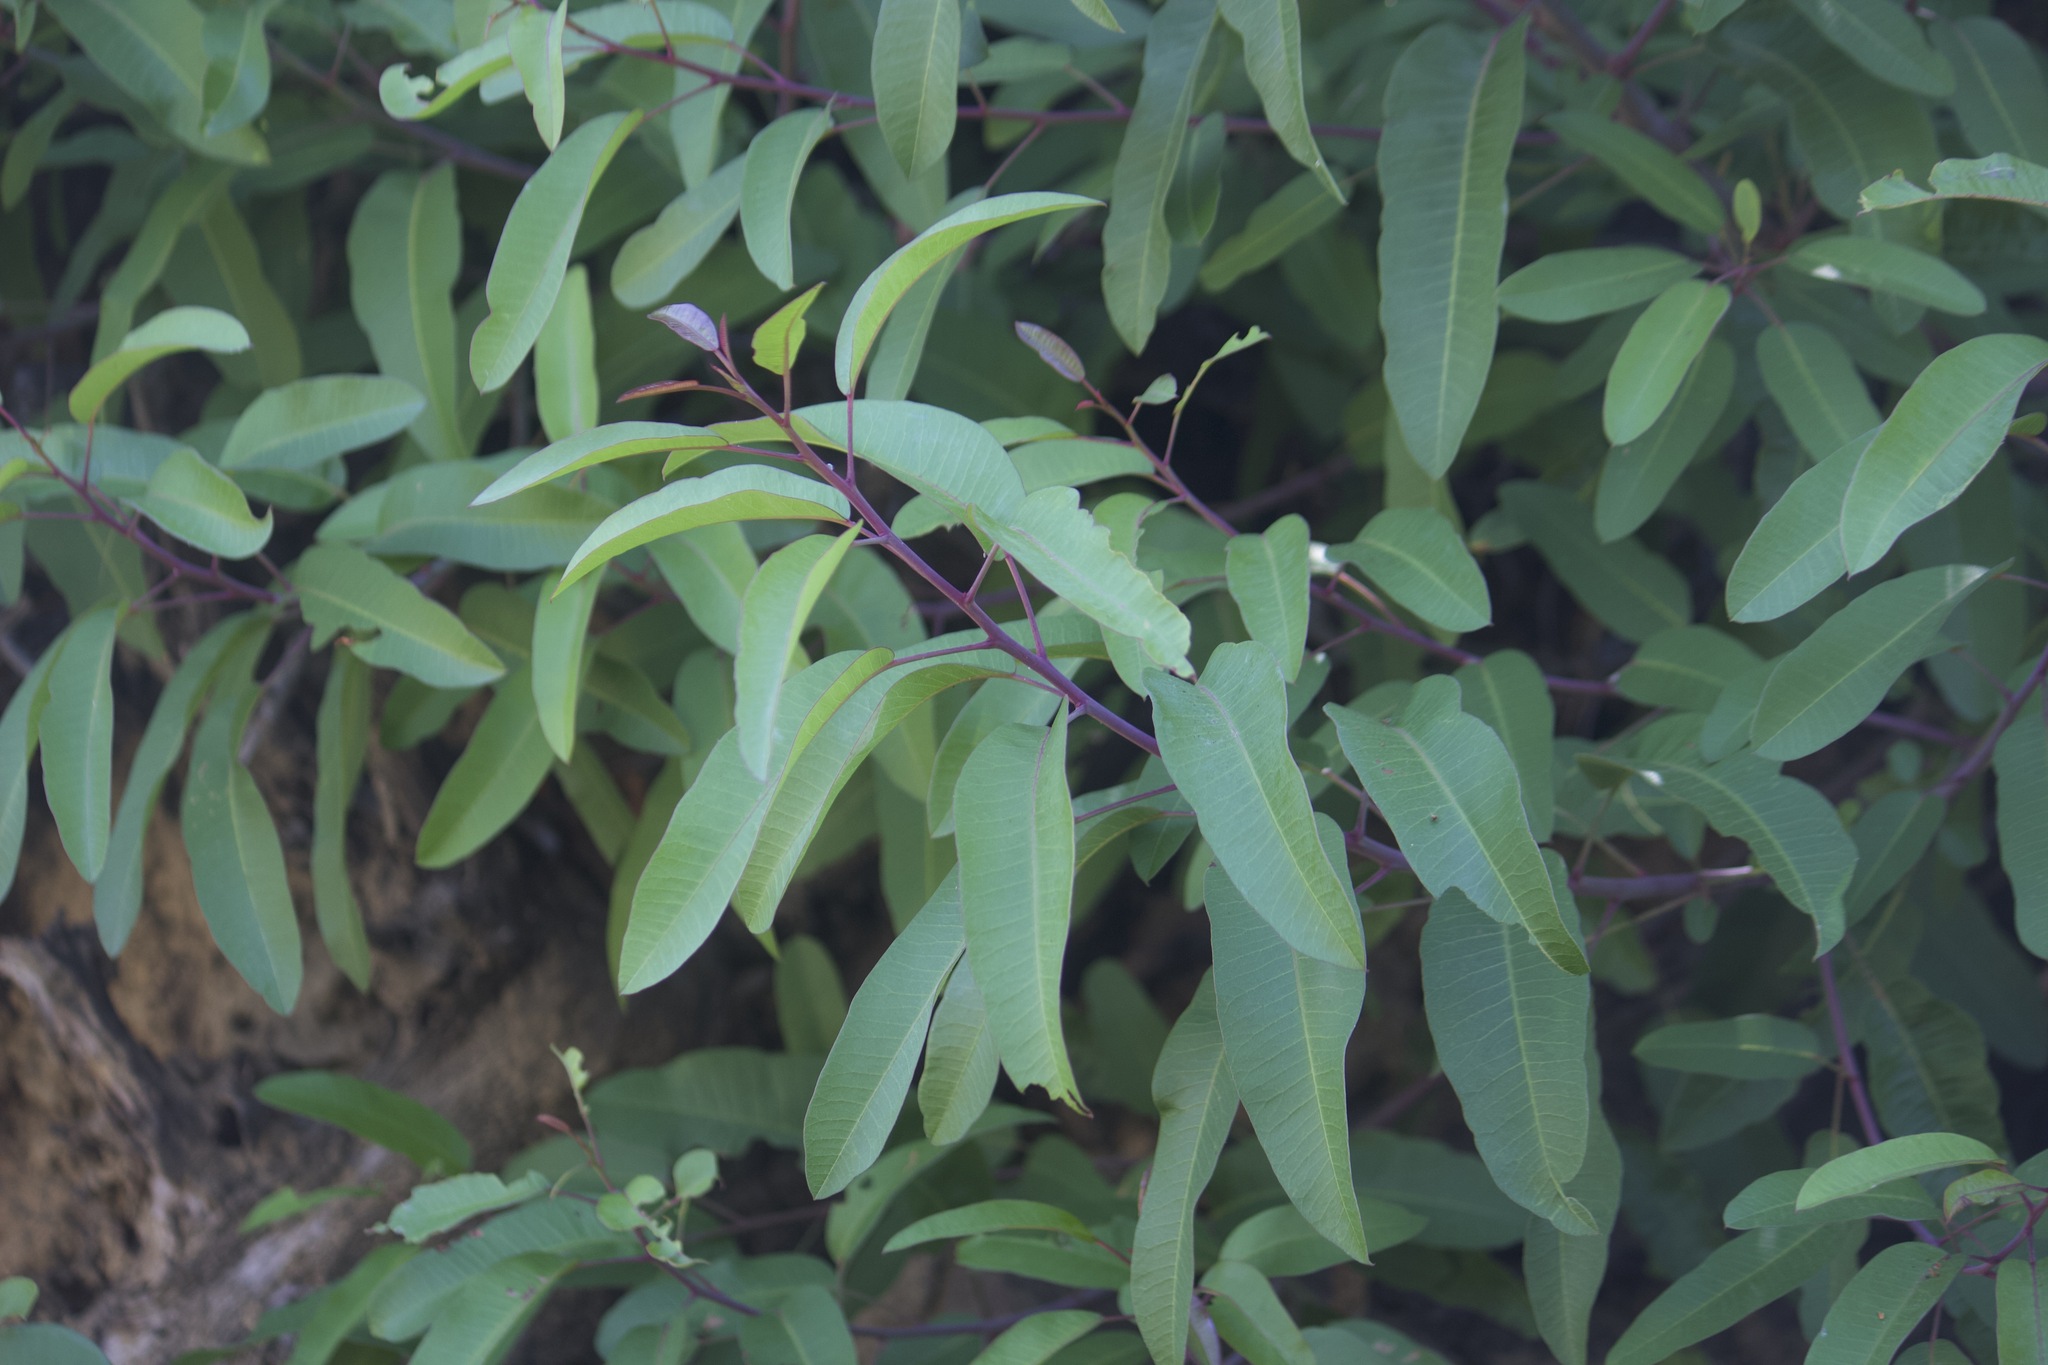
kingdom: Plantae
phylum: Tracheophyta
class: Magnoliopsida
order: Sapindales
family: Anacardiaceae
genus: Malosma
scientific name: Malosma laurina
